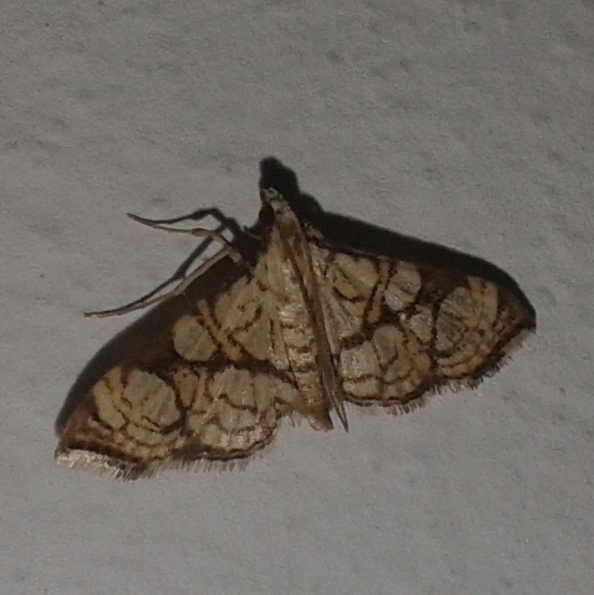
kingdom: Animalia
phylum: Arthropoda
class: Insecta
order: Lepidoptera
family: Crambidae
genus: Glyphodes
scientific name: Glyphodes
